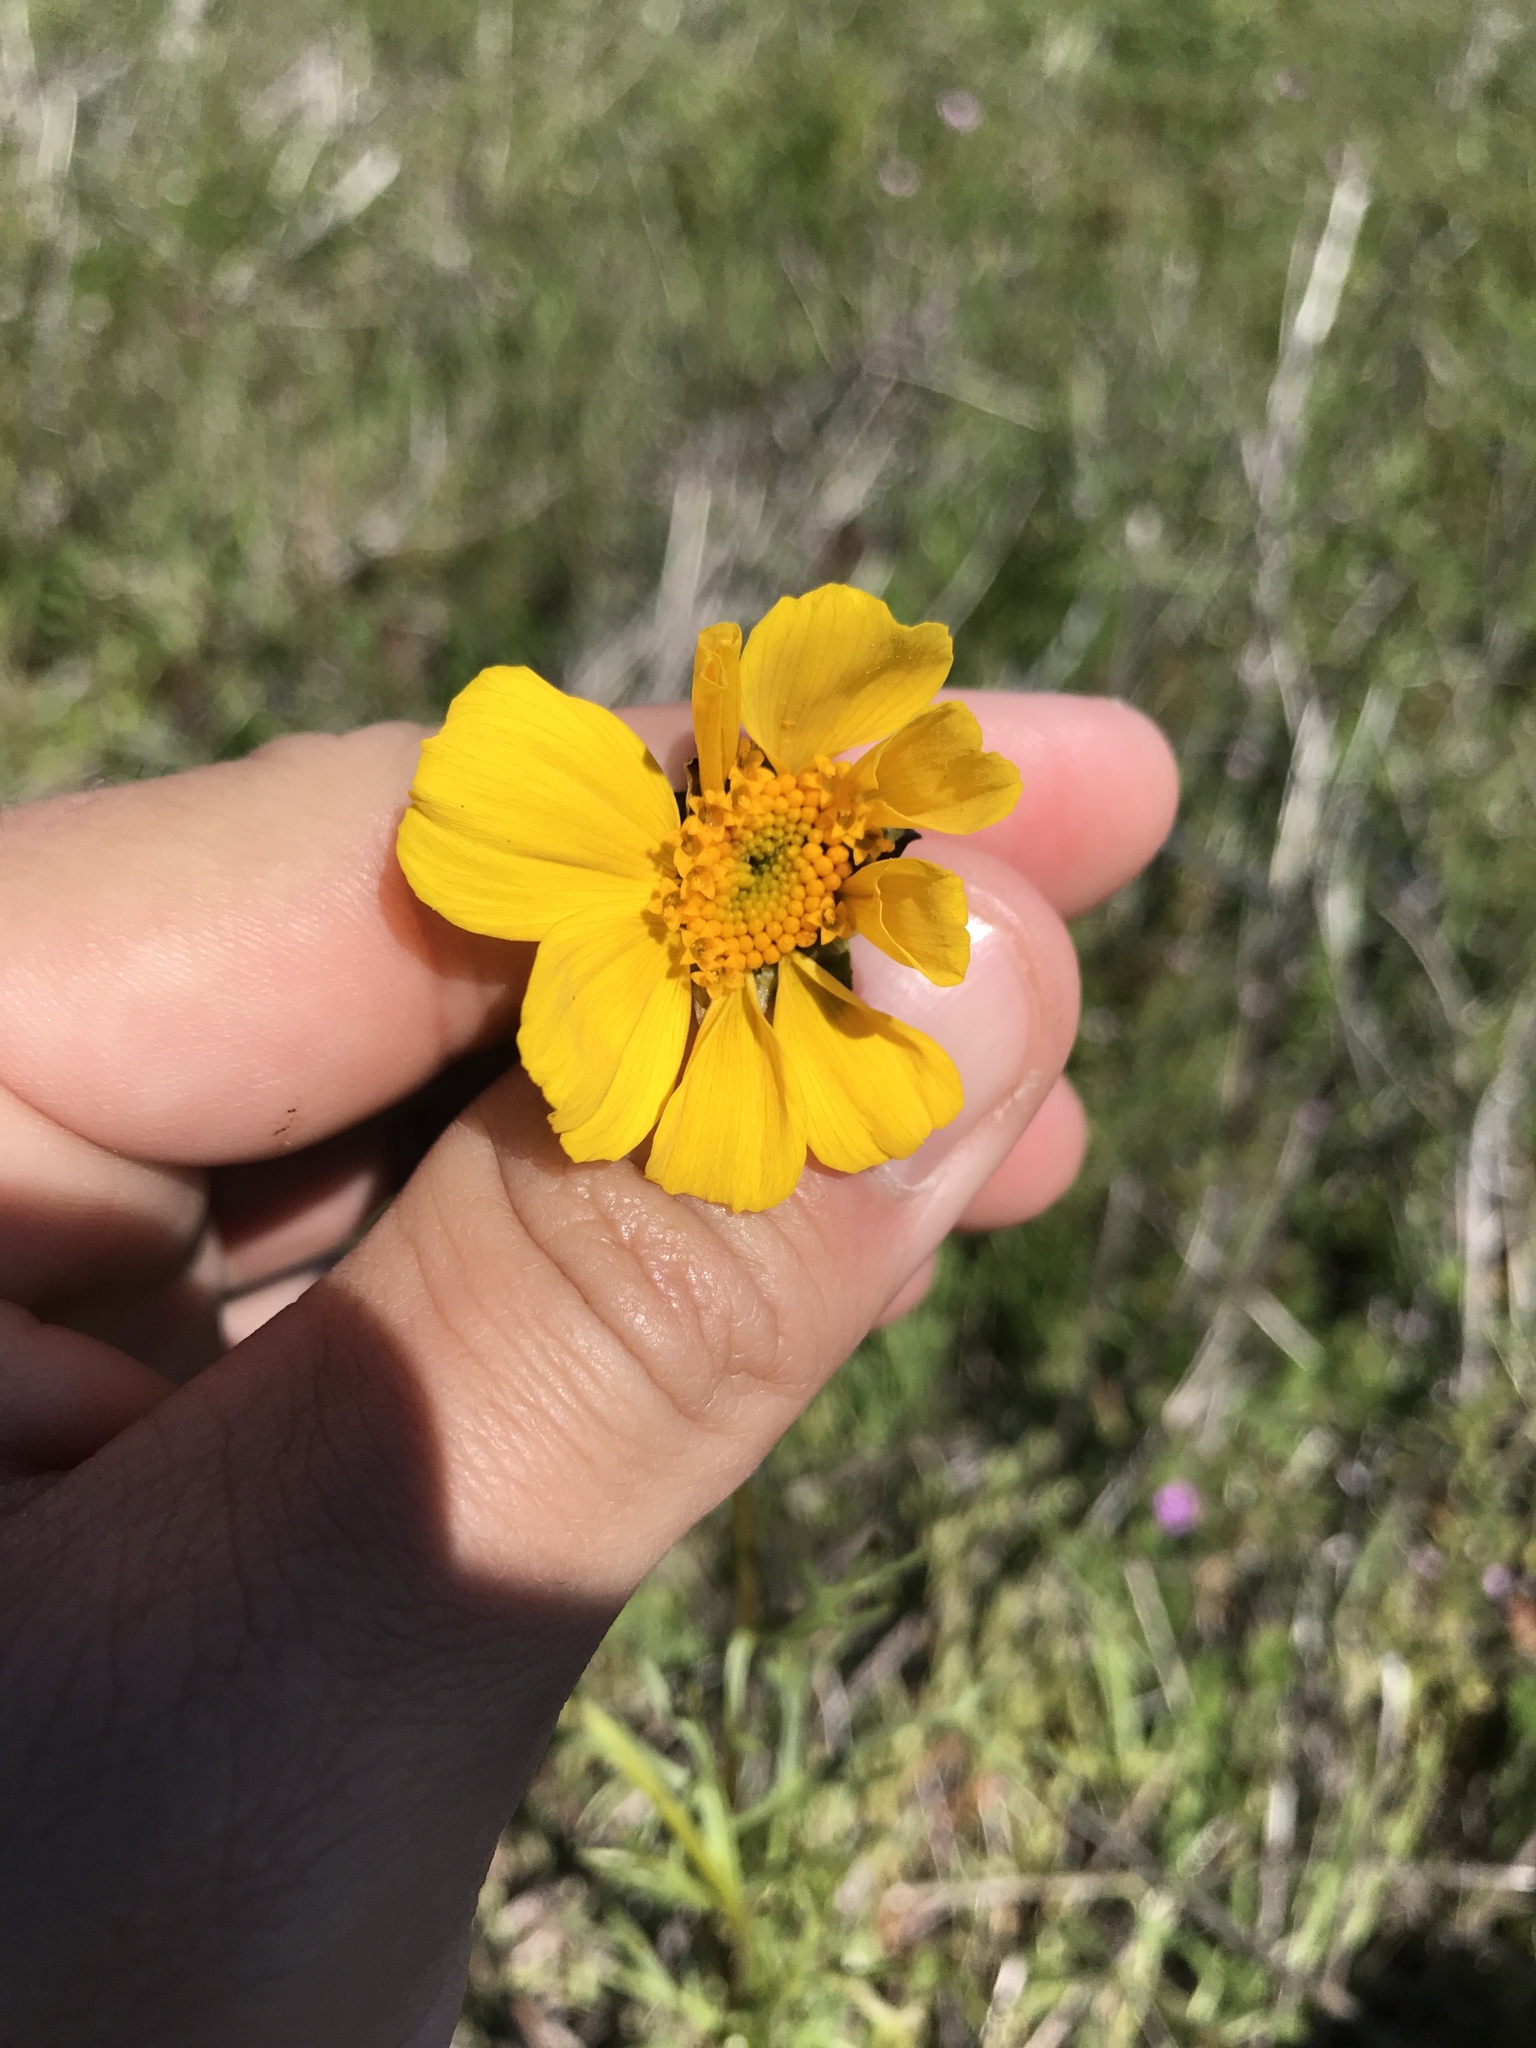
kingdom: Plantae
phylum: Tracheophyta
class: Magnoliopsida
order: Asterales
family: Asteraceae
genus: Coreopsis
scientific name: Coreopsis calliopsidea
